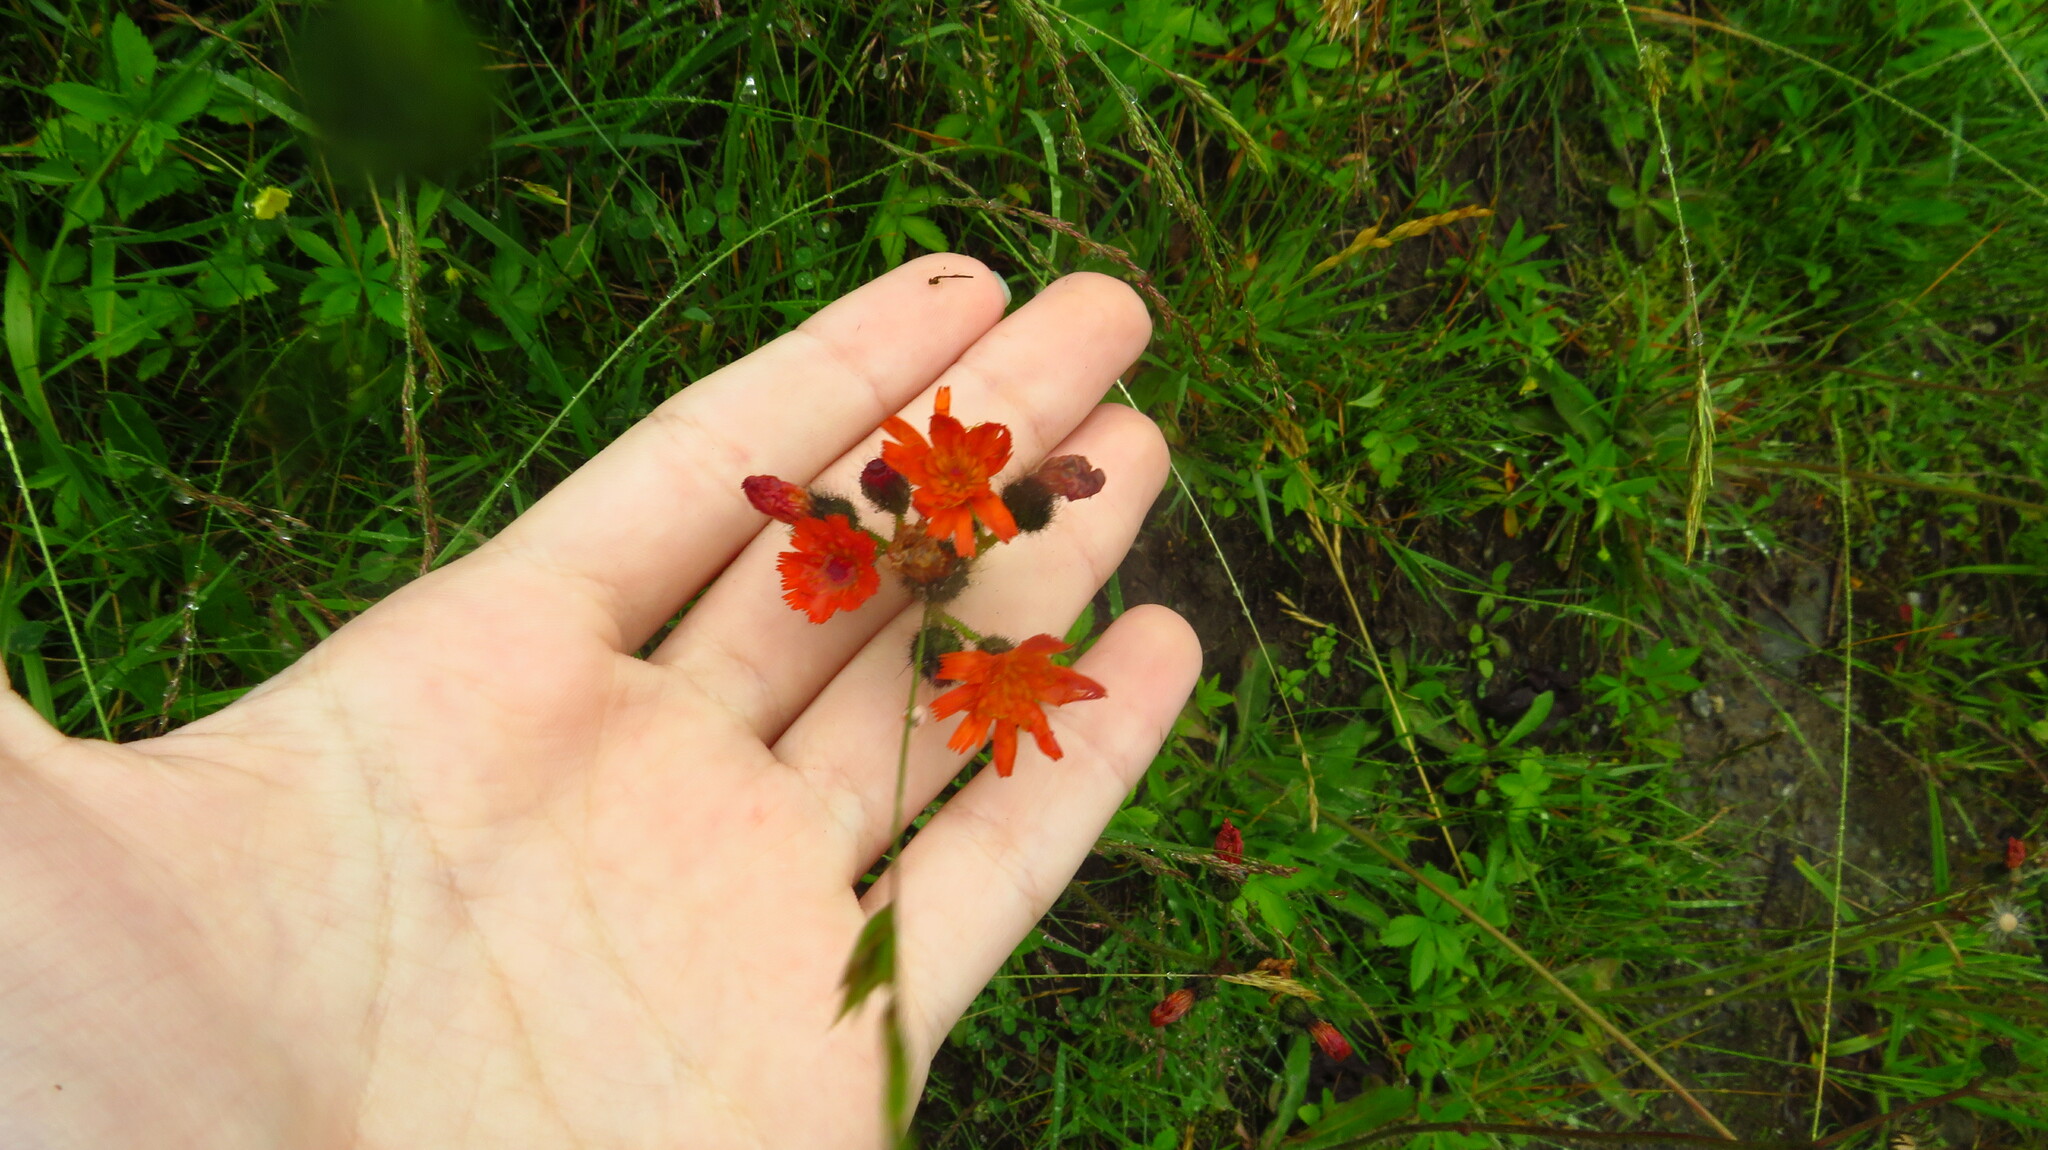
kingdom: Plantae
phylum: Tracheophyta
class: Magnoliopsida
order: Asterales
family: Asteraceae
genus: Pilosella
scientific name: Pilosella aurantiaca
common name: Fox-and-cubs
